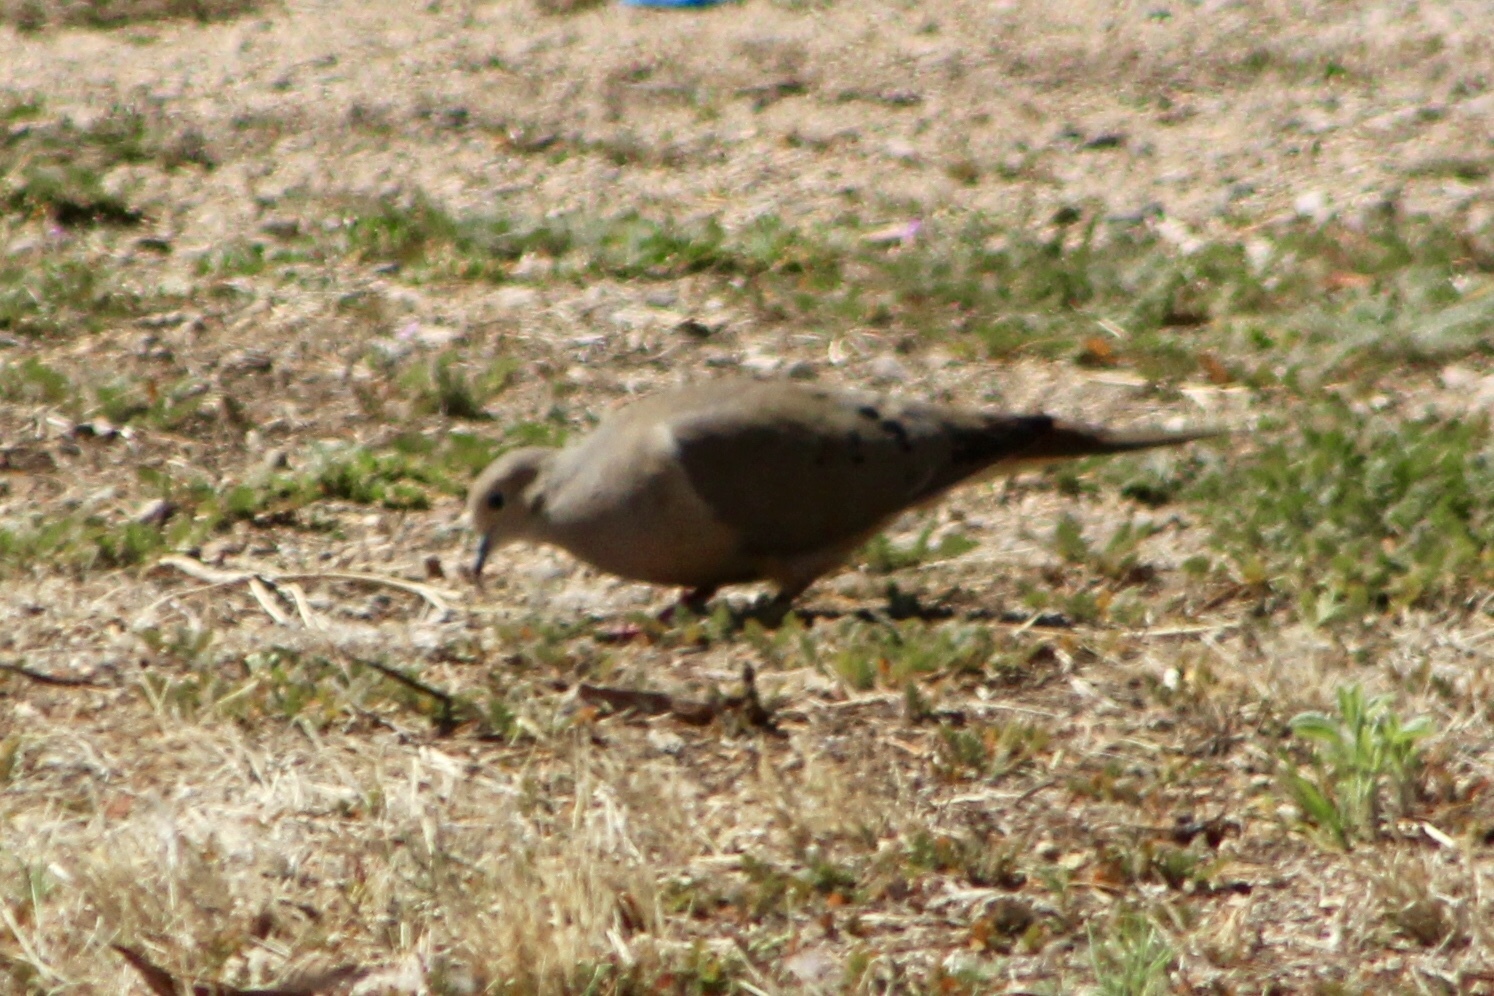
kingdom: Animalia
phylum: Chordata
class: Aves
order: Columbiformes
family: Columbidae
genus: Zenaida
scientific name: Zenaida macroura
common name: Mourning dove
